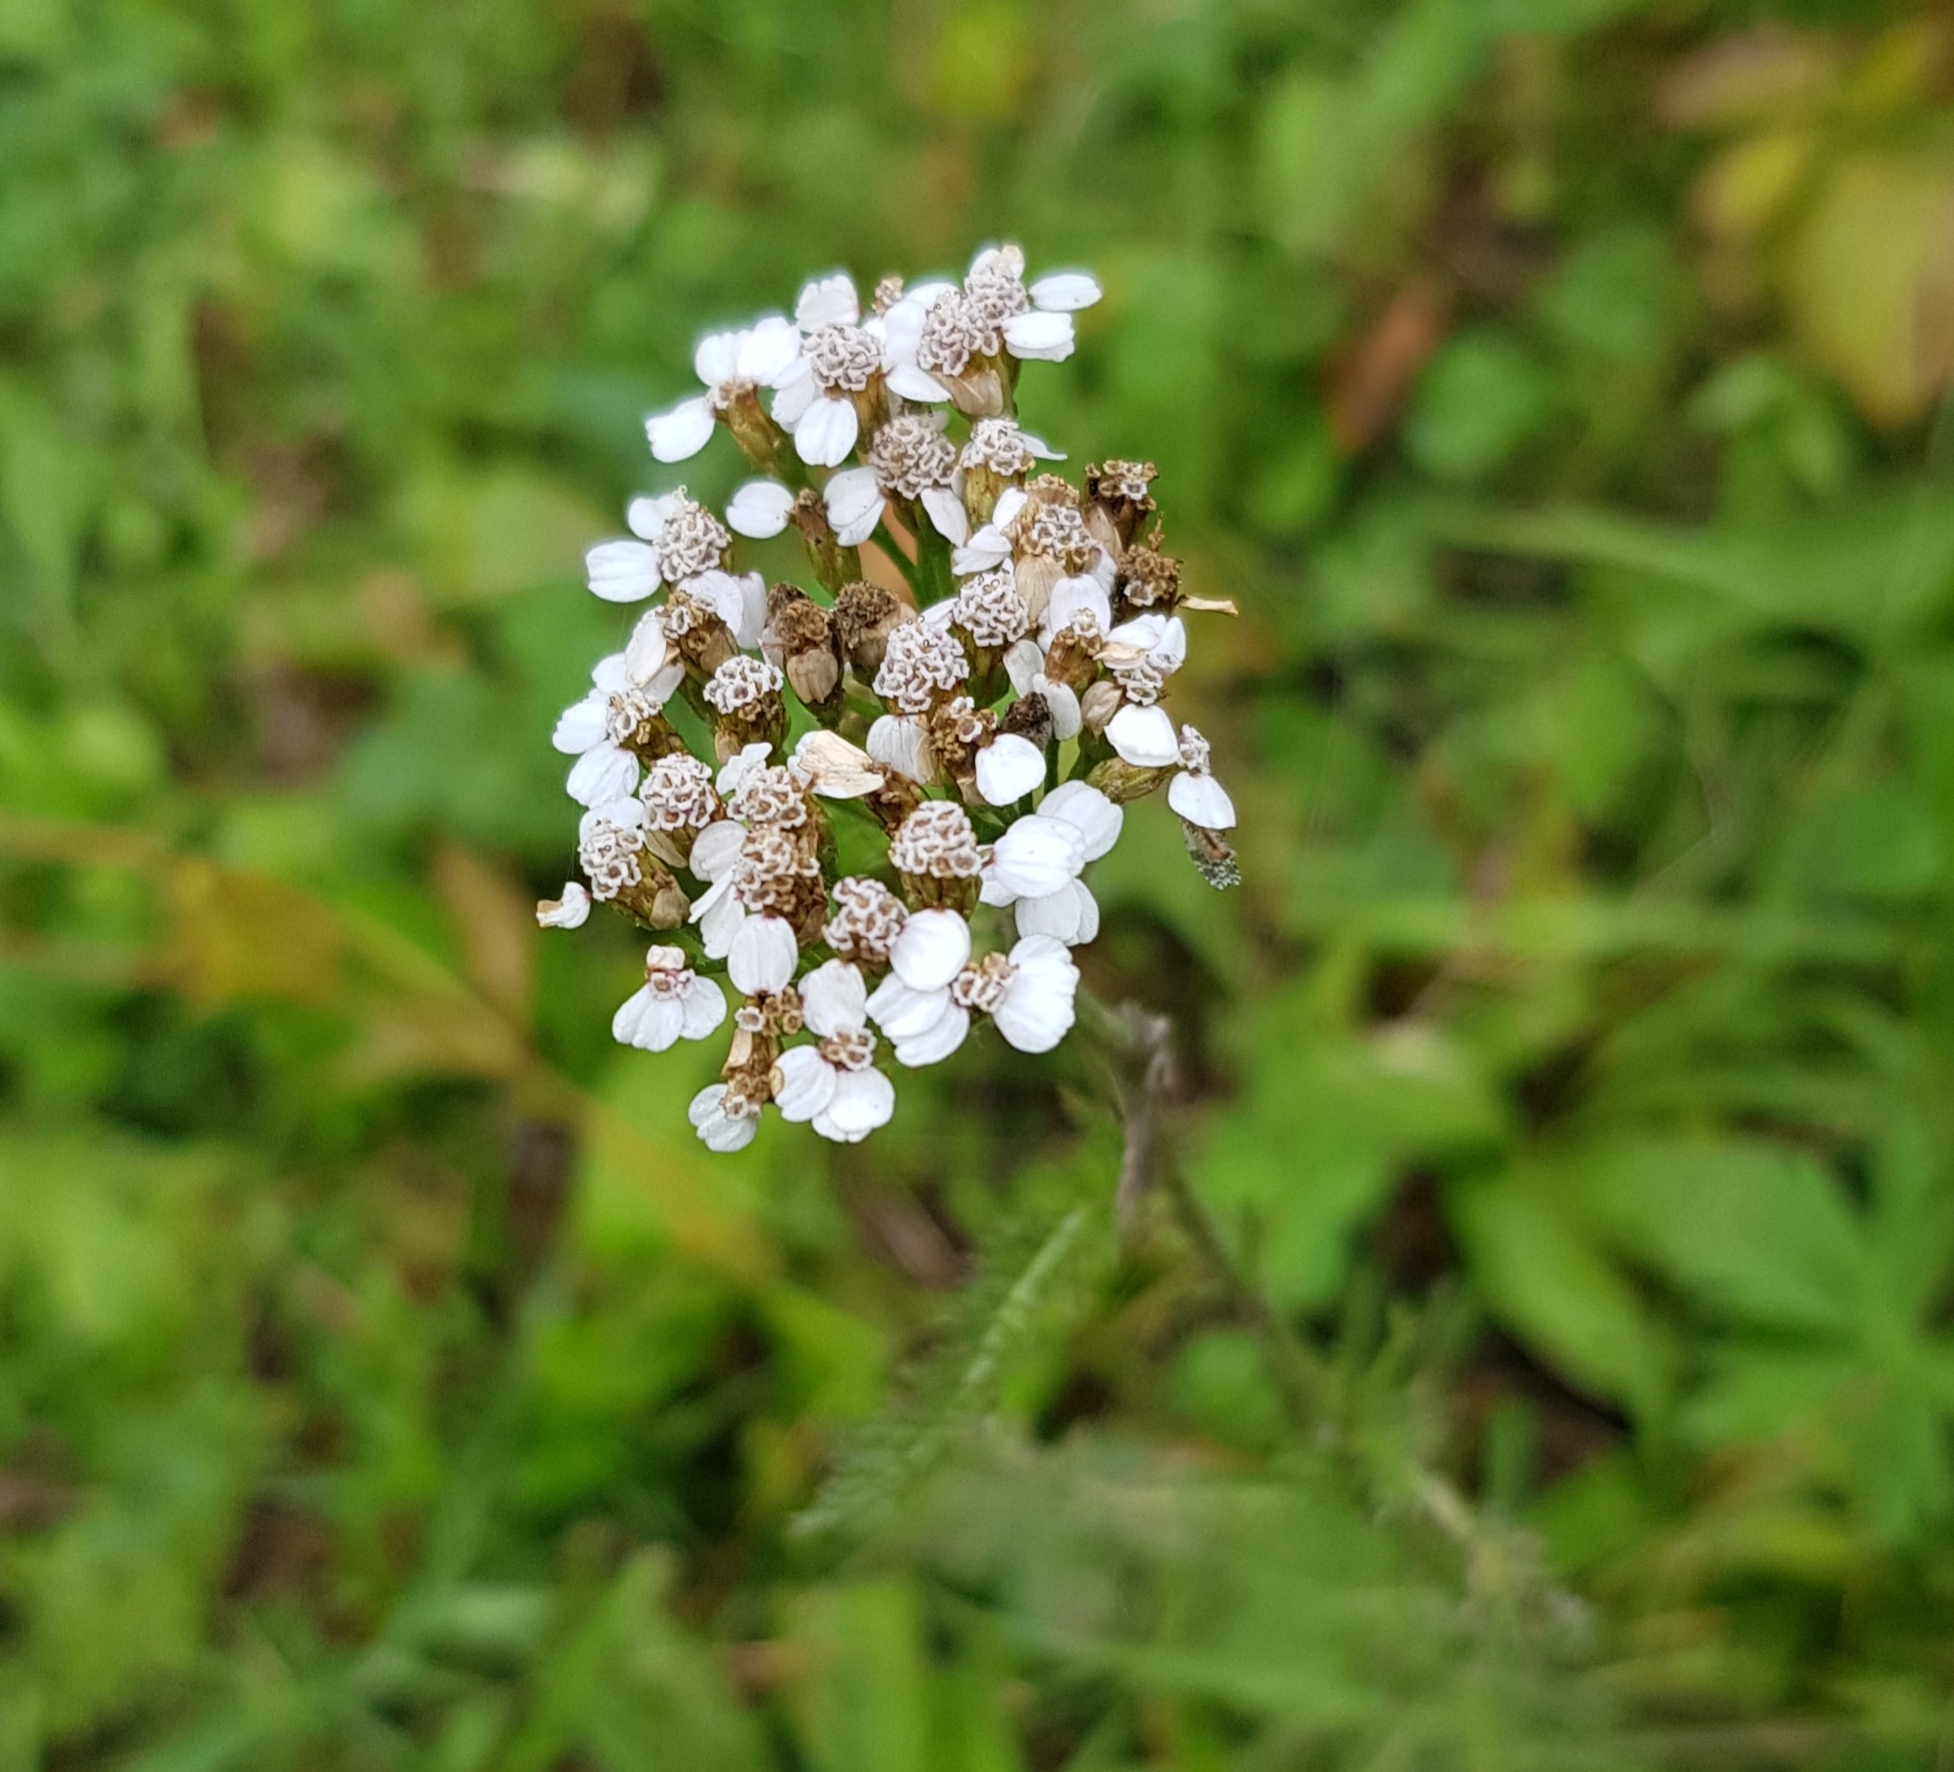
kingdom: Plantae
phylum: Tracheophyta
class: Magnoliopsida
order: Asterales
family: Asteraceae
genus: Achillea
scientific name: Achillea millefolium
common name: Yarrow
